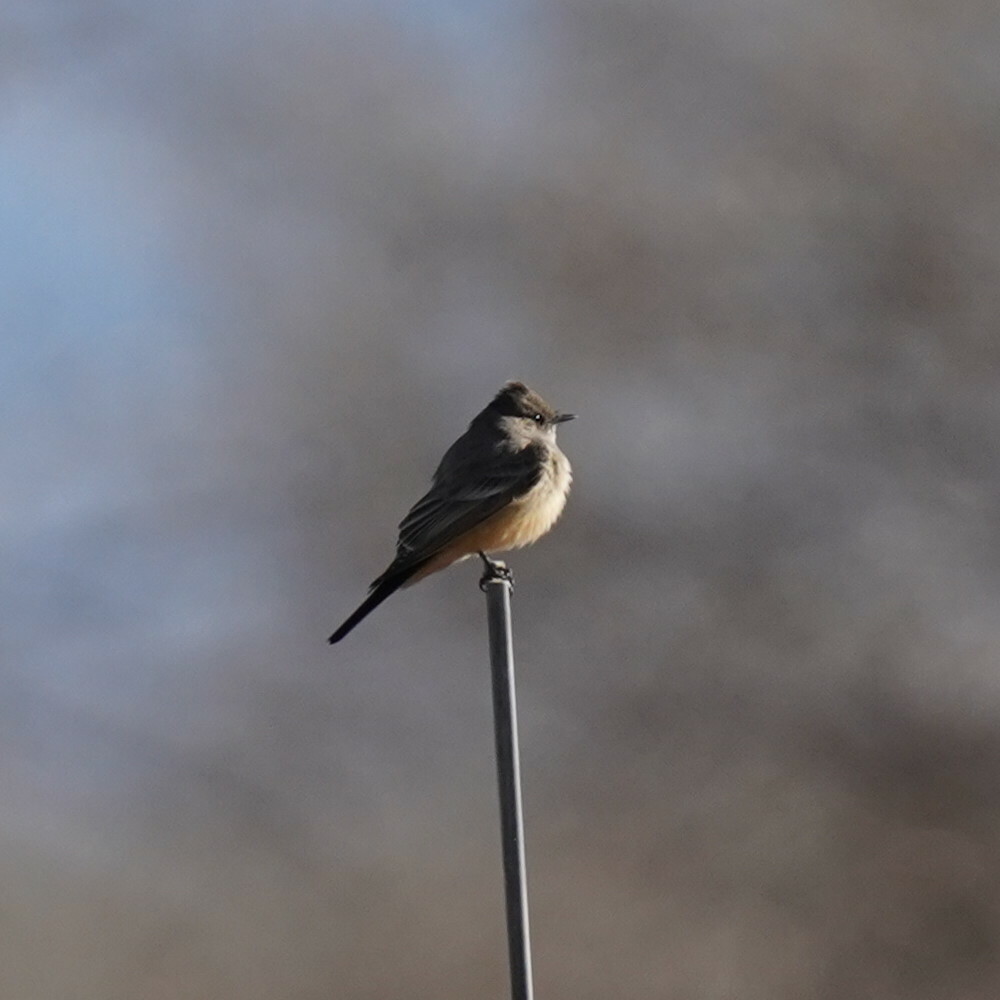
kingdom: Animalia
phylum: Chordata
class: Aves
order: Passeriformes
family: Tyrannidae
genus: Sayornis
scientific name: Sayornis saya
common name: Say's phoebe
